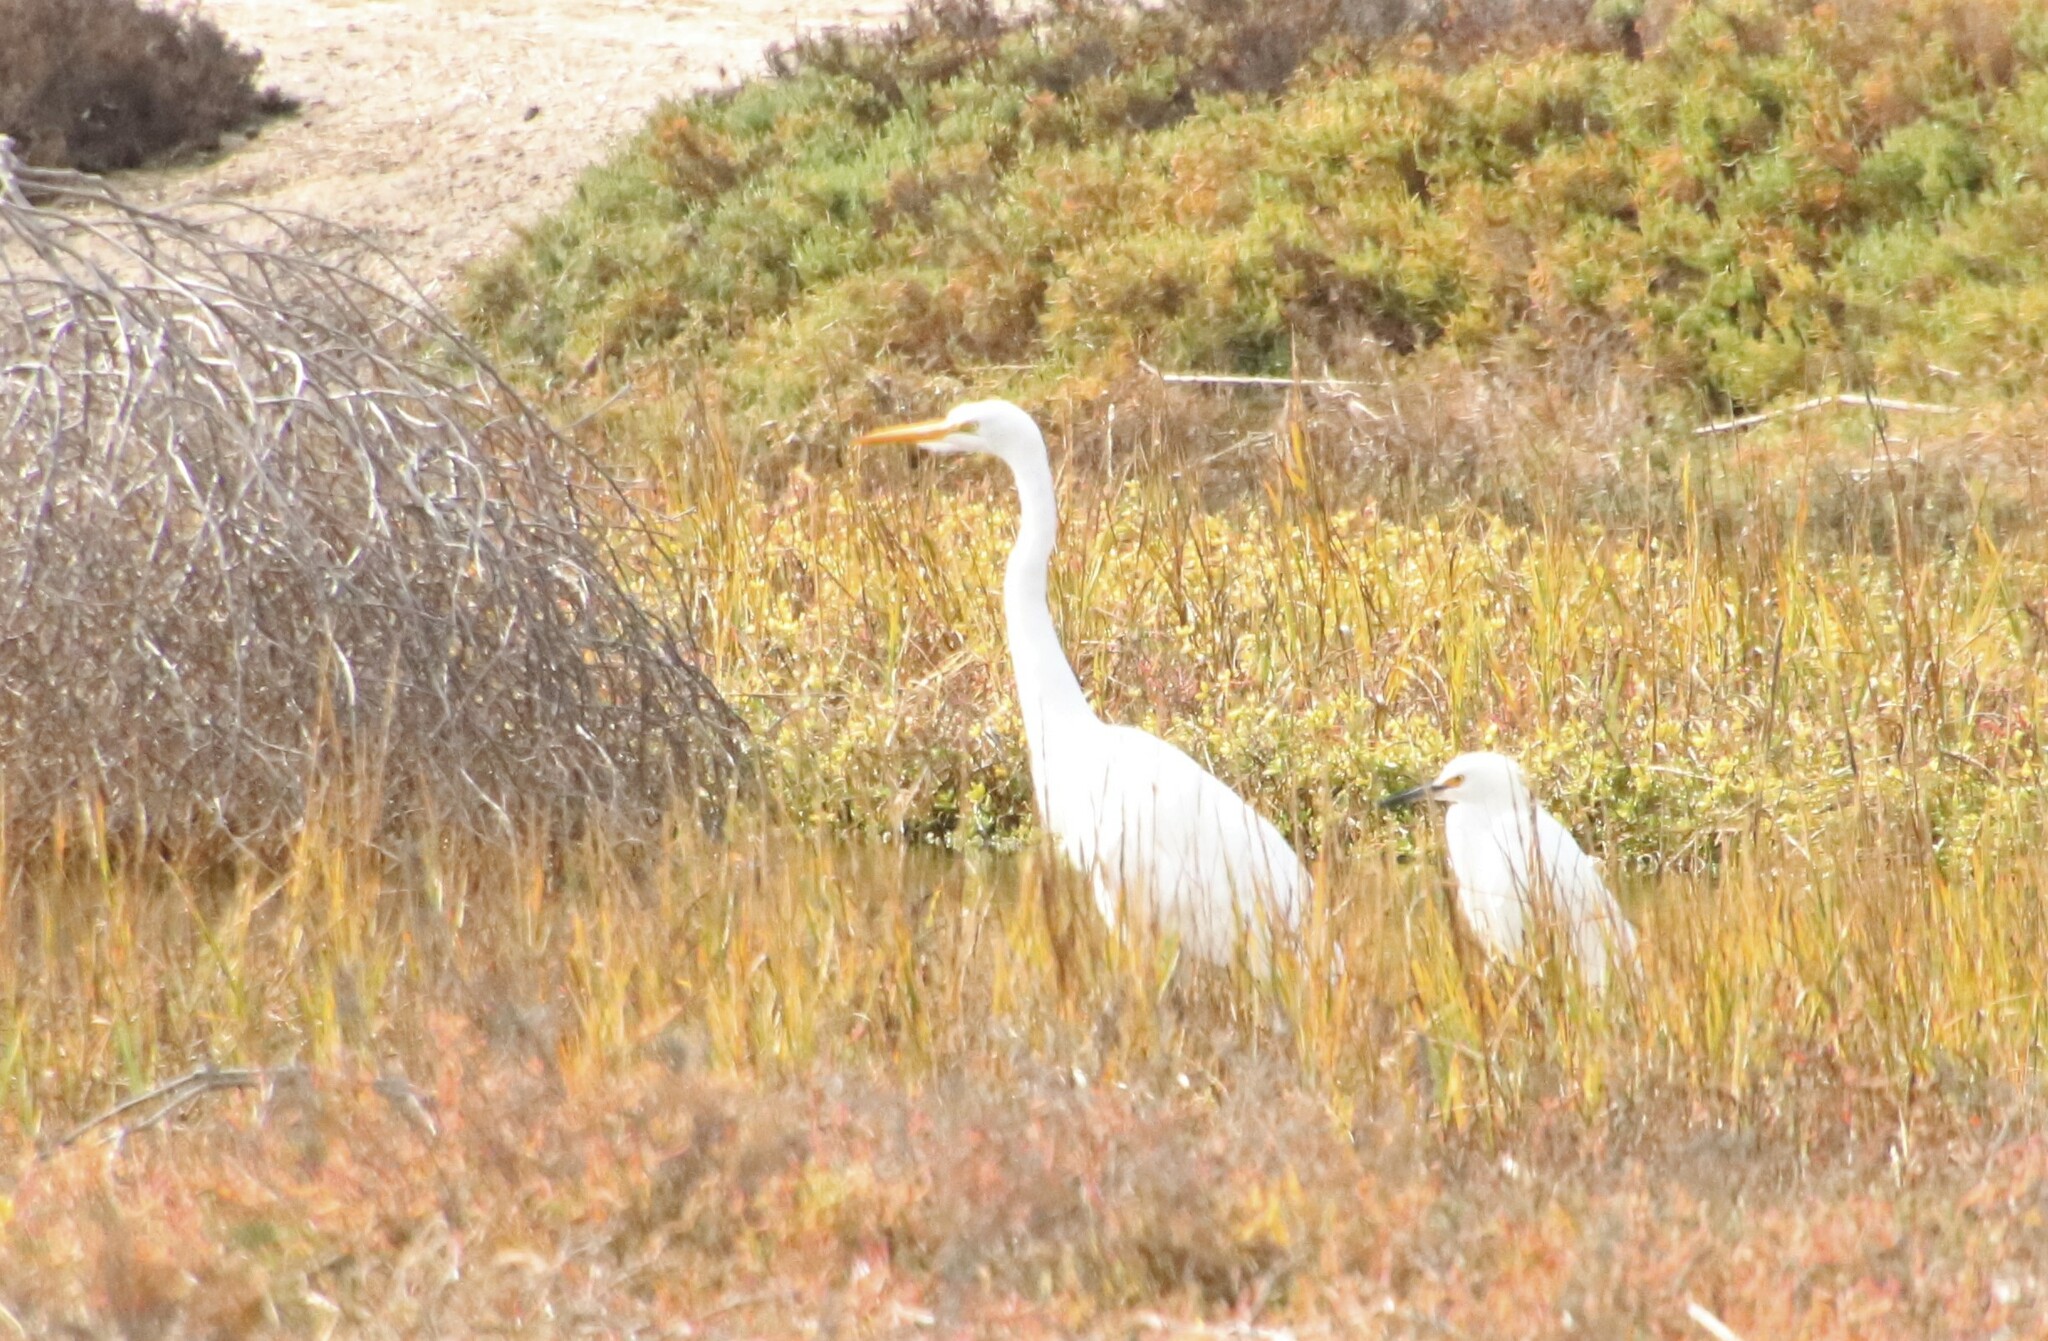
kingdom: Animalia
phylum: Chordata
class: Aves
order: Pelecaniformes
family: Ardeidae
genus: Ardea
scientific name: Ardea alba
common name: Great egret
